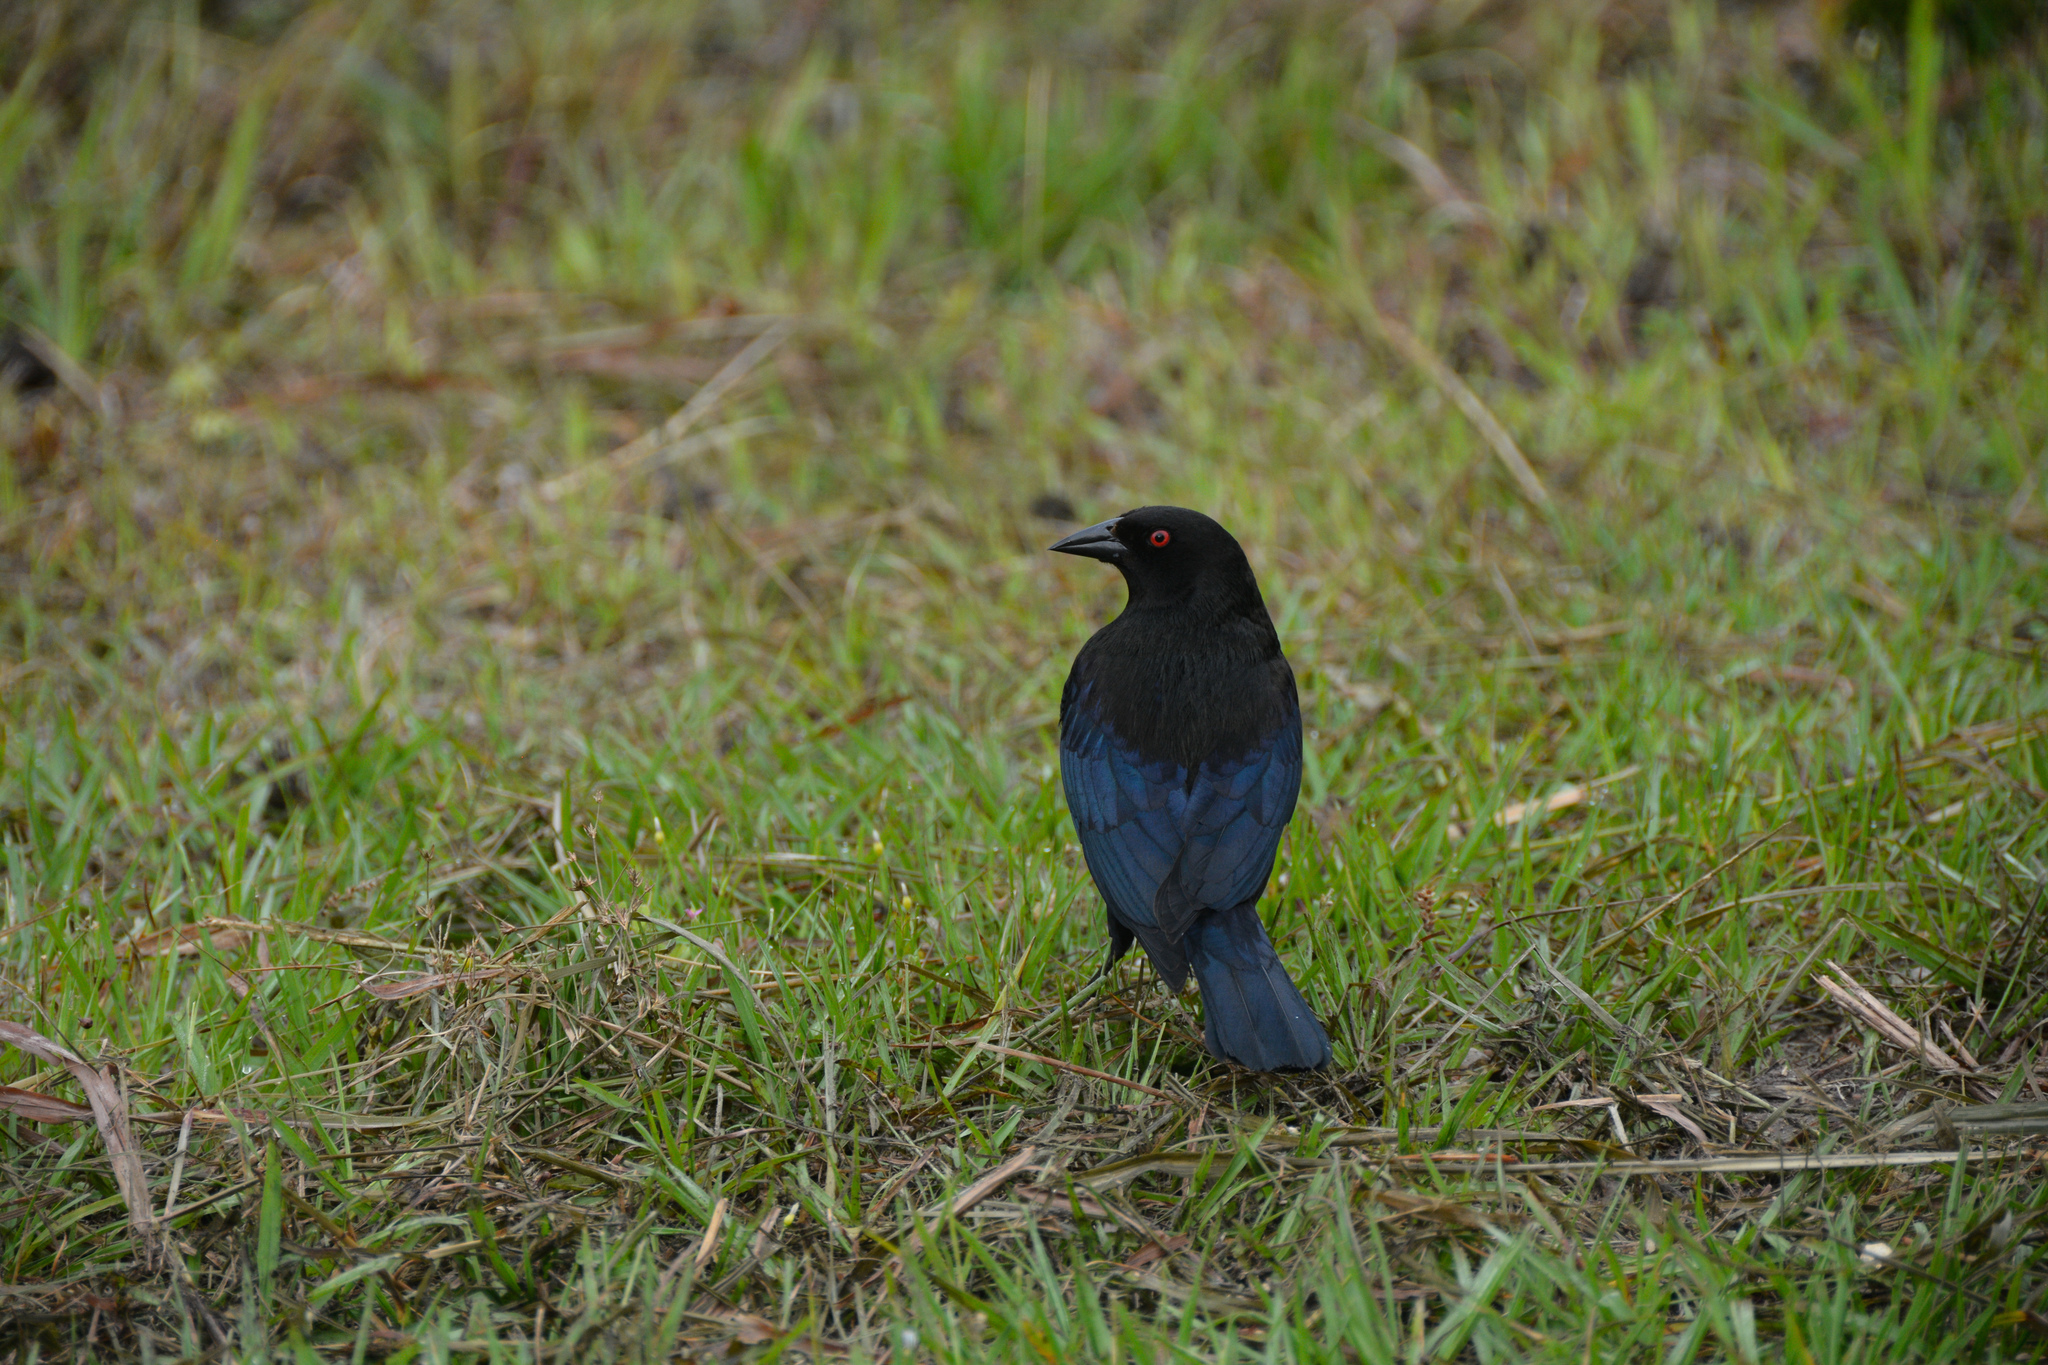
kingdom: Animalia
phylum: Chordata
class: Aves
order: Passeriformes
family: Icteridae
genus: Molothrus
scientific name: Molothrus aeneus
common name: Bronzed cowbird
